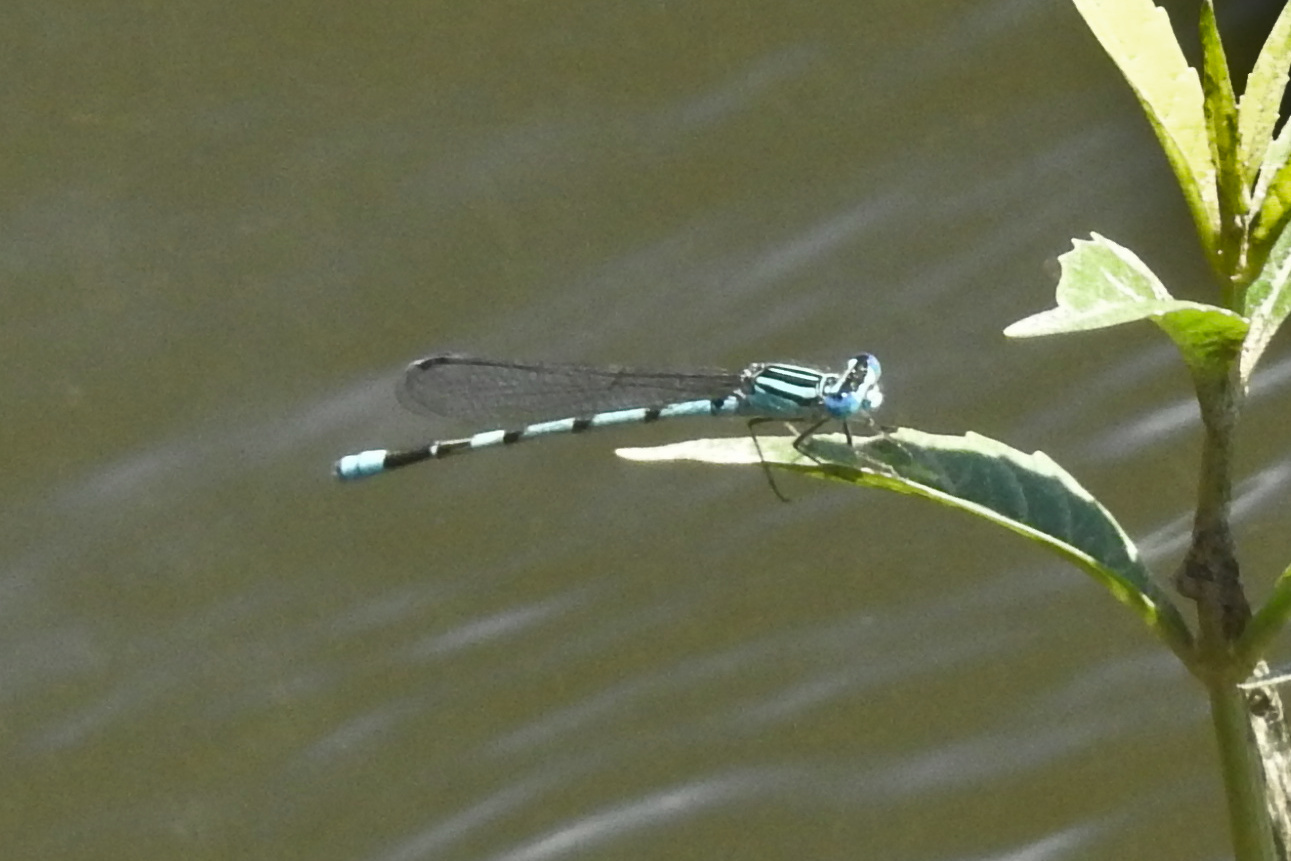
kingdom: Animalia
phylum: Arthropoda
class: Insecta
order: Odonata
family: Coenagrionidae
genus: Enallagma
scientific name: Enallagma durum
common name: Big bluet
